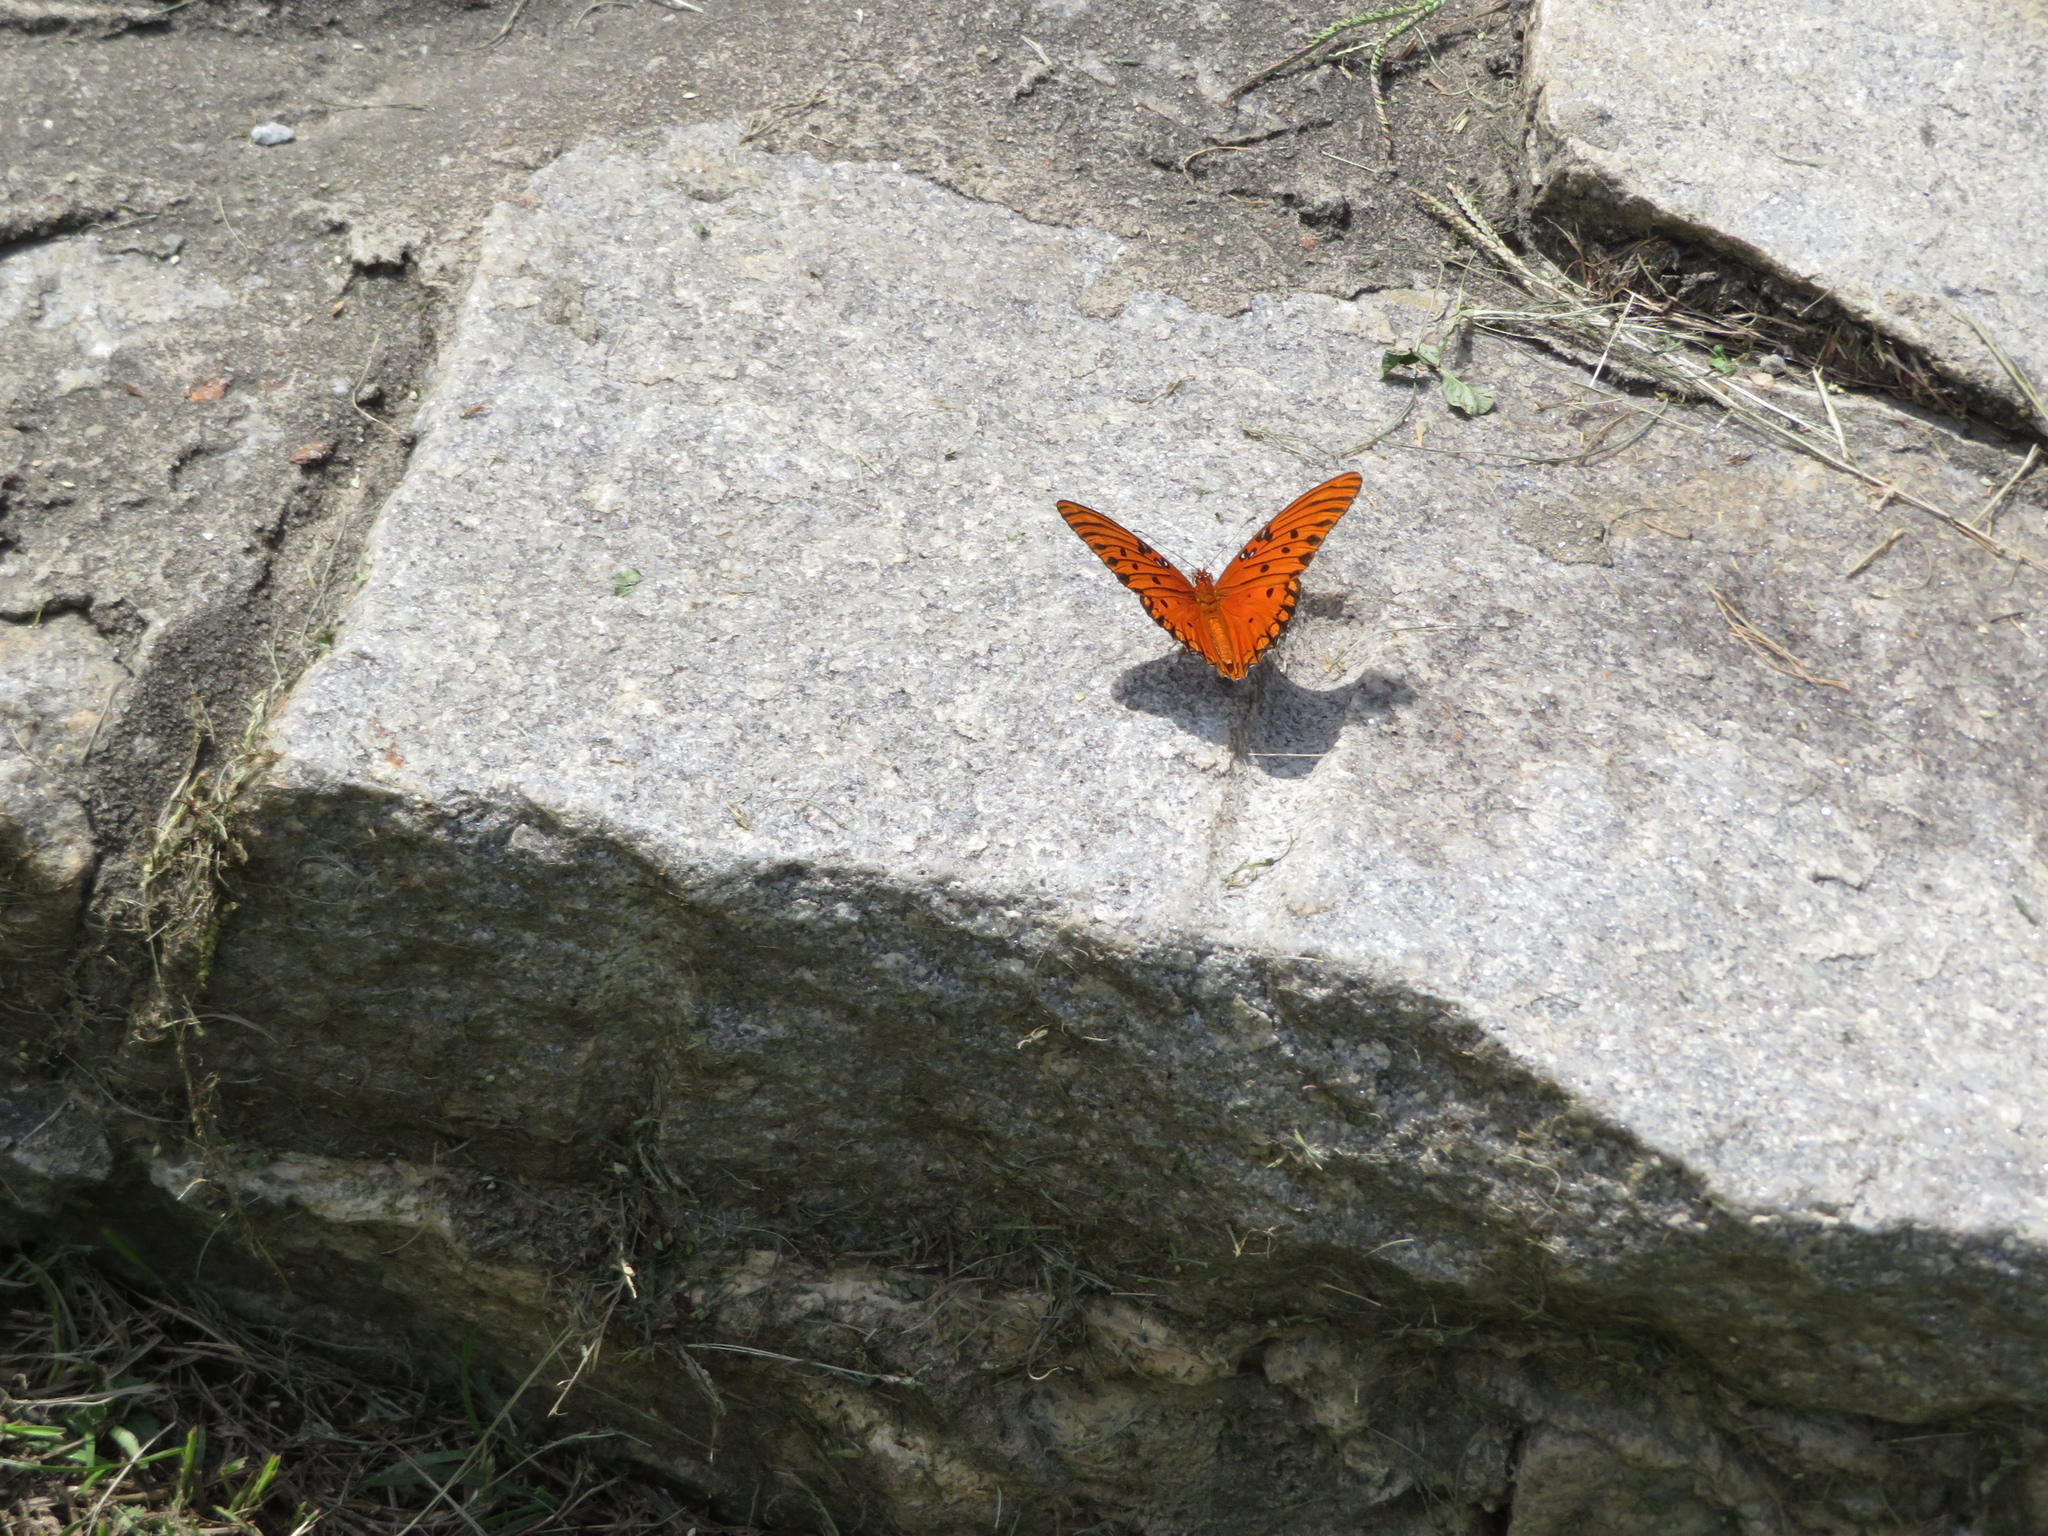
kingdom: Animalia
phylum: Arthropoda
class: Insecta
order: Lepidoptera
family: Nymphalidae
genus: Dione
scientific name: Dione vanillae
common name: Gulf fritillary
